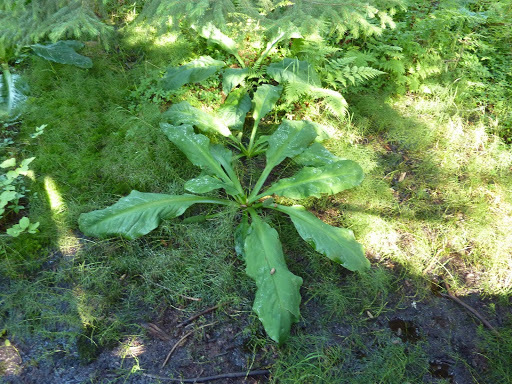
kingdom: Plantae
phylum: Tracheophyta
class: Liliopsida
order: Alismatales
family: Araceae
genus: Lysichiton
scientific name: Lysichiton americanus
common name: American skunk cabbage
